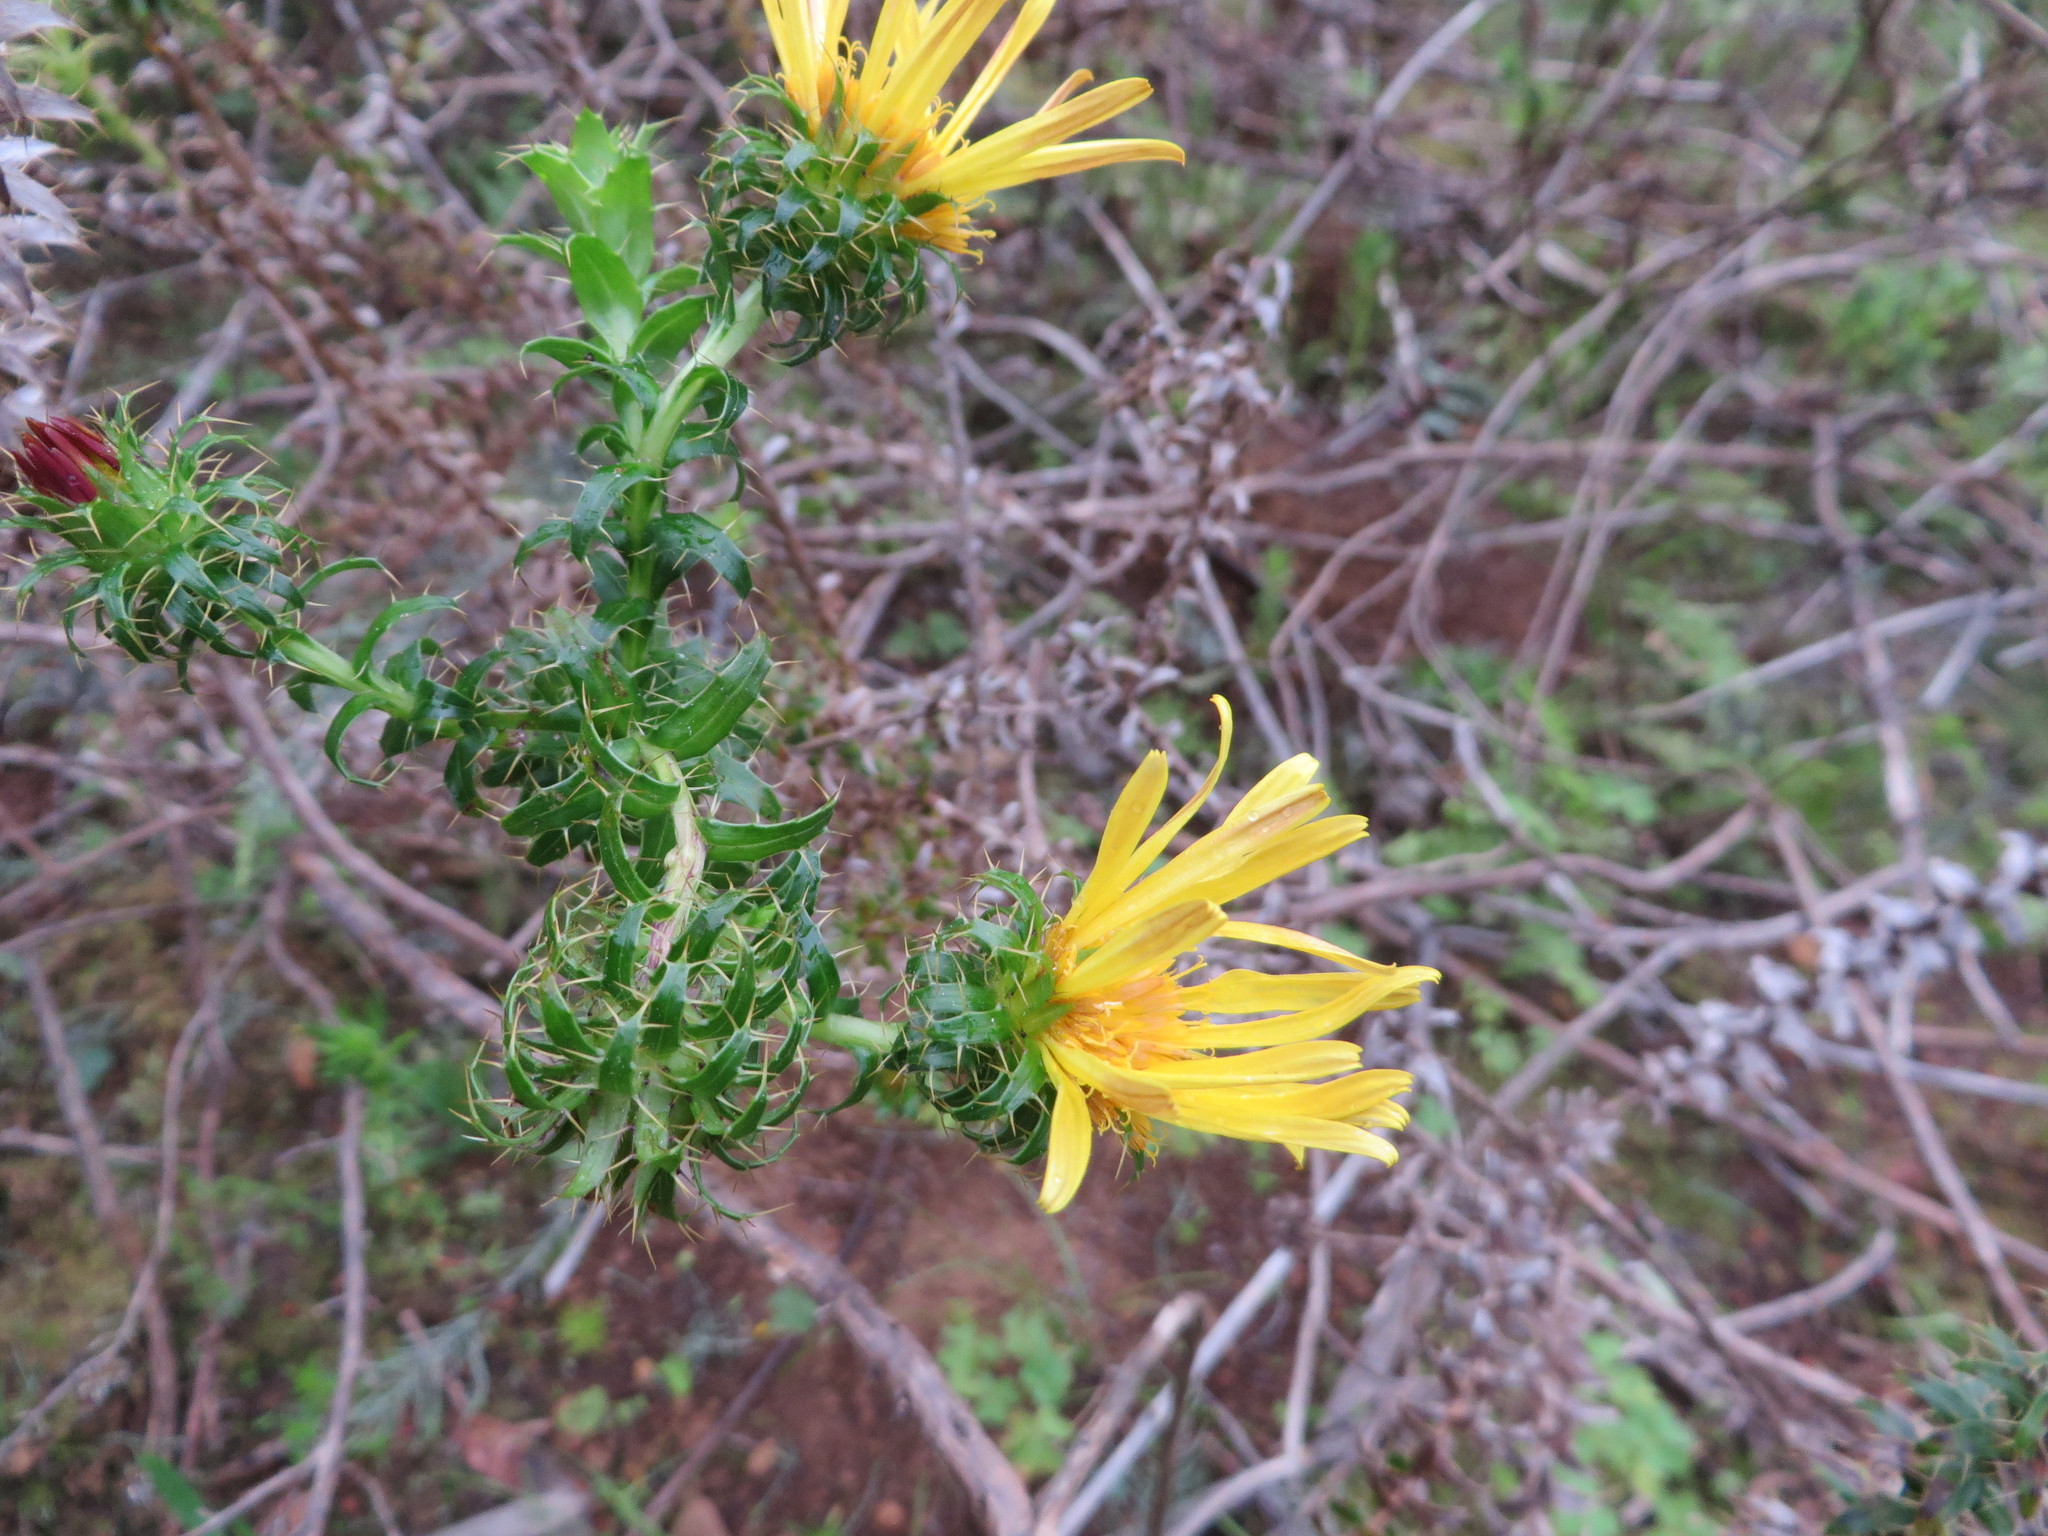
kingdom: Plantae
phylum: Tracheophyta
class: Magnoliopsida
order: Asterales
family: Asteraceae
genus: Cullumia
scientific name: Cullumia setosa
